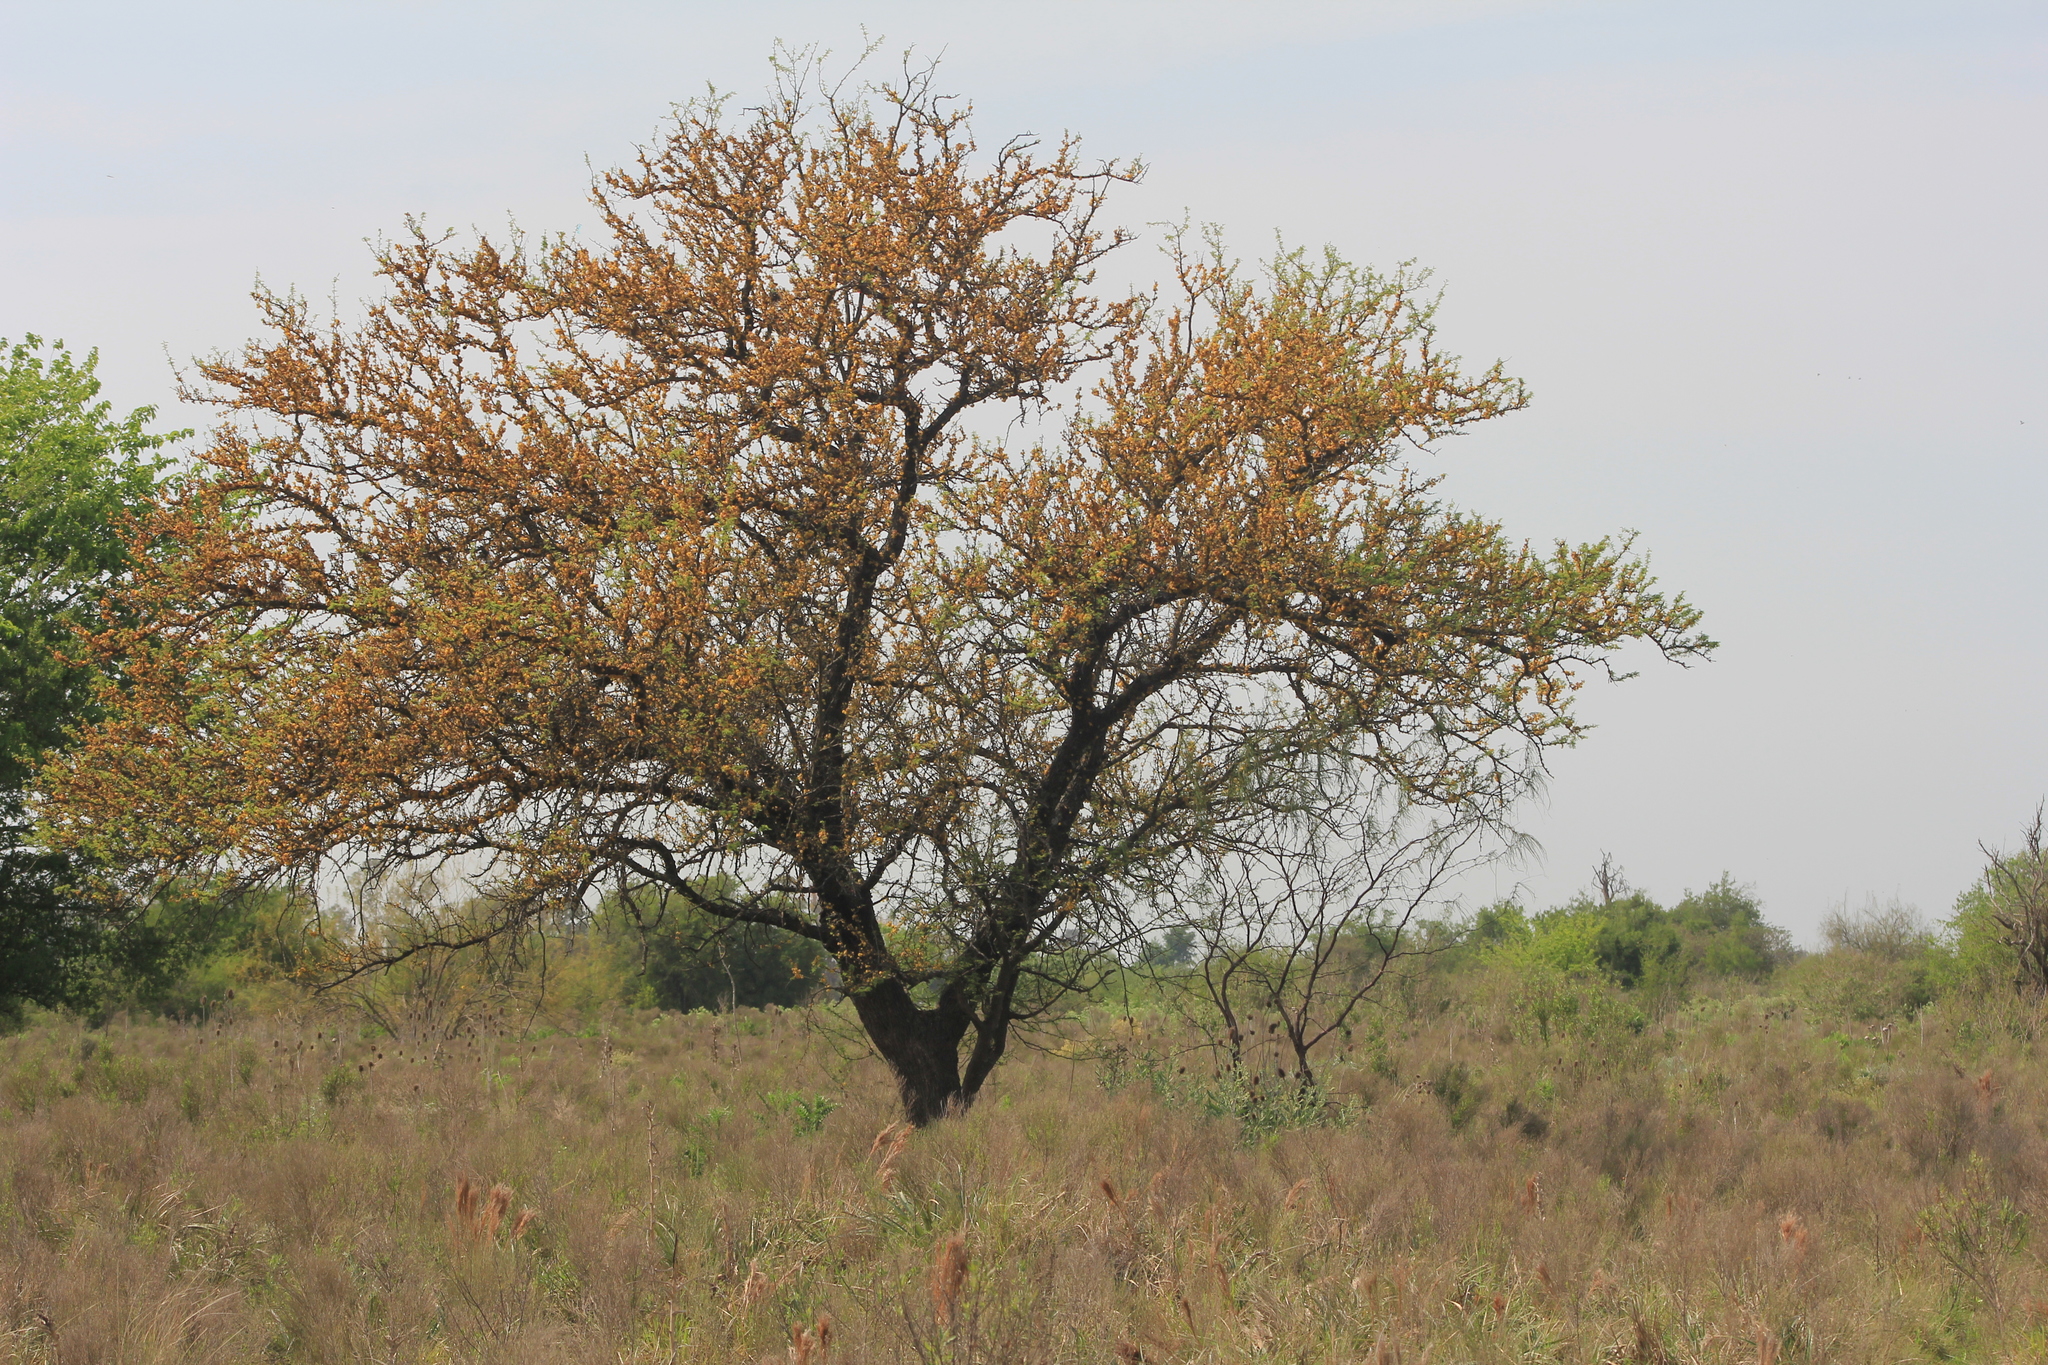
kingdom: Plantae
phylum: Tracheophyta
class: Magnoliopsida
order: Fabales
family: Fabaceae
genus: Vachellia
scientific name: Vachellia caven
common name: Roman cassie
